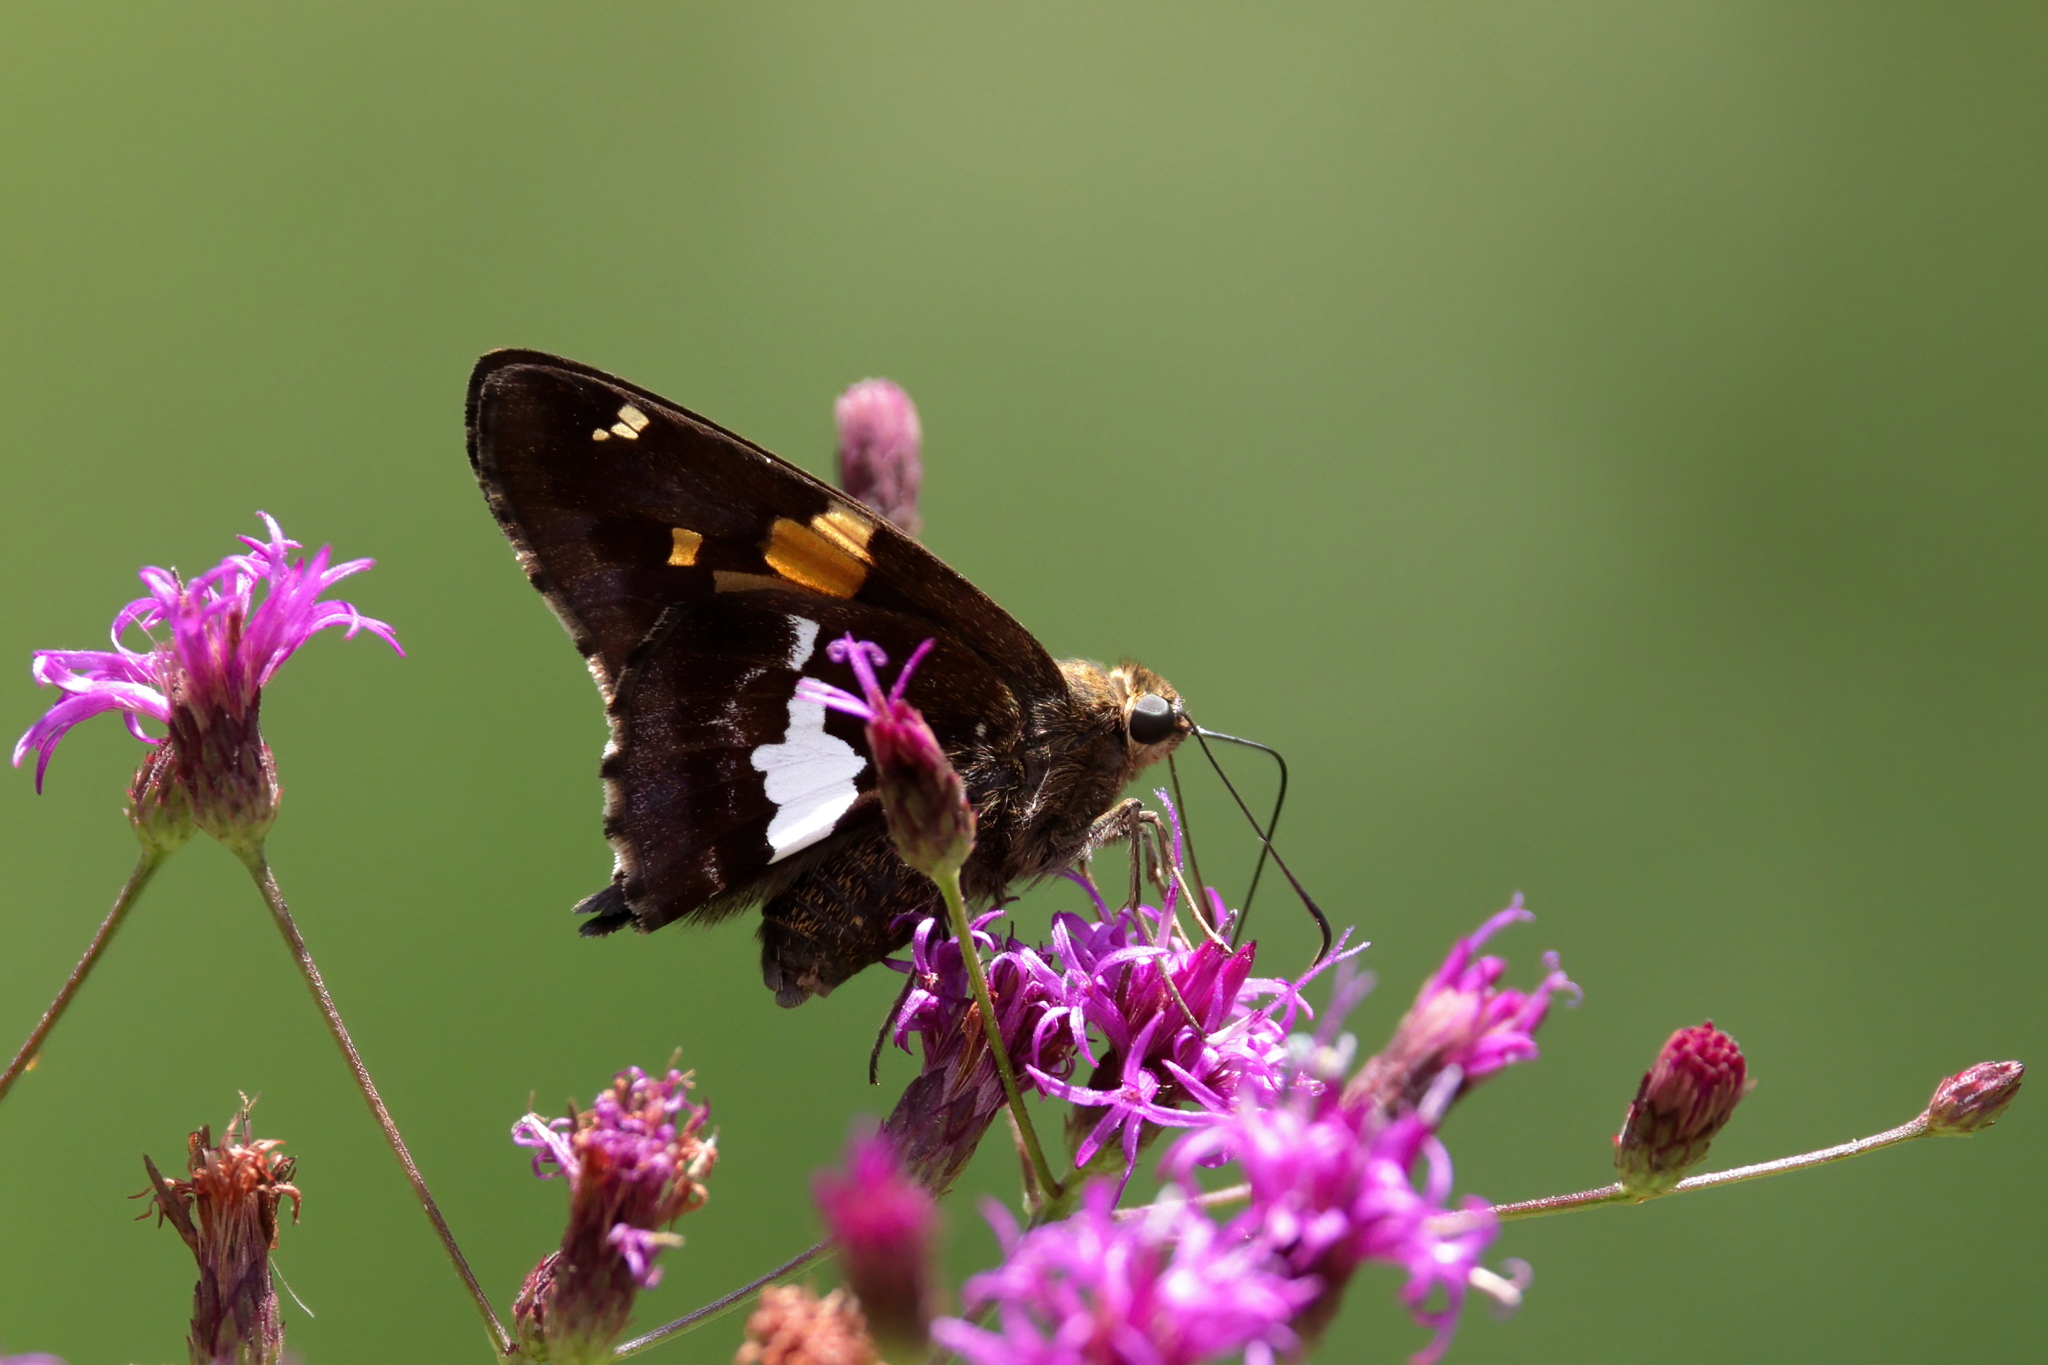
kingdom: Animalia
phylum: Arthropoda
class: Insecta
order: Lepidoptera
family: Hesperiidae
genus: Epargyreus
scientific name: Epargyreus clarus
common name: Silver-spotted skipper
